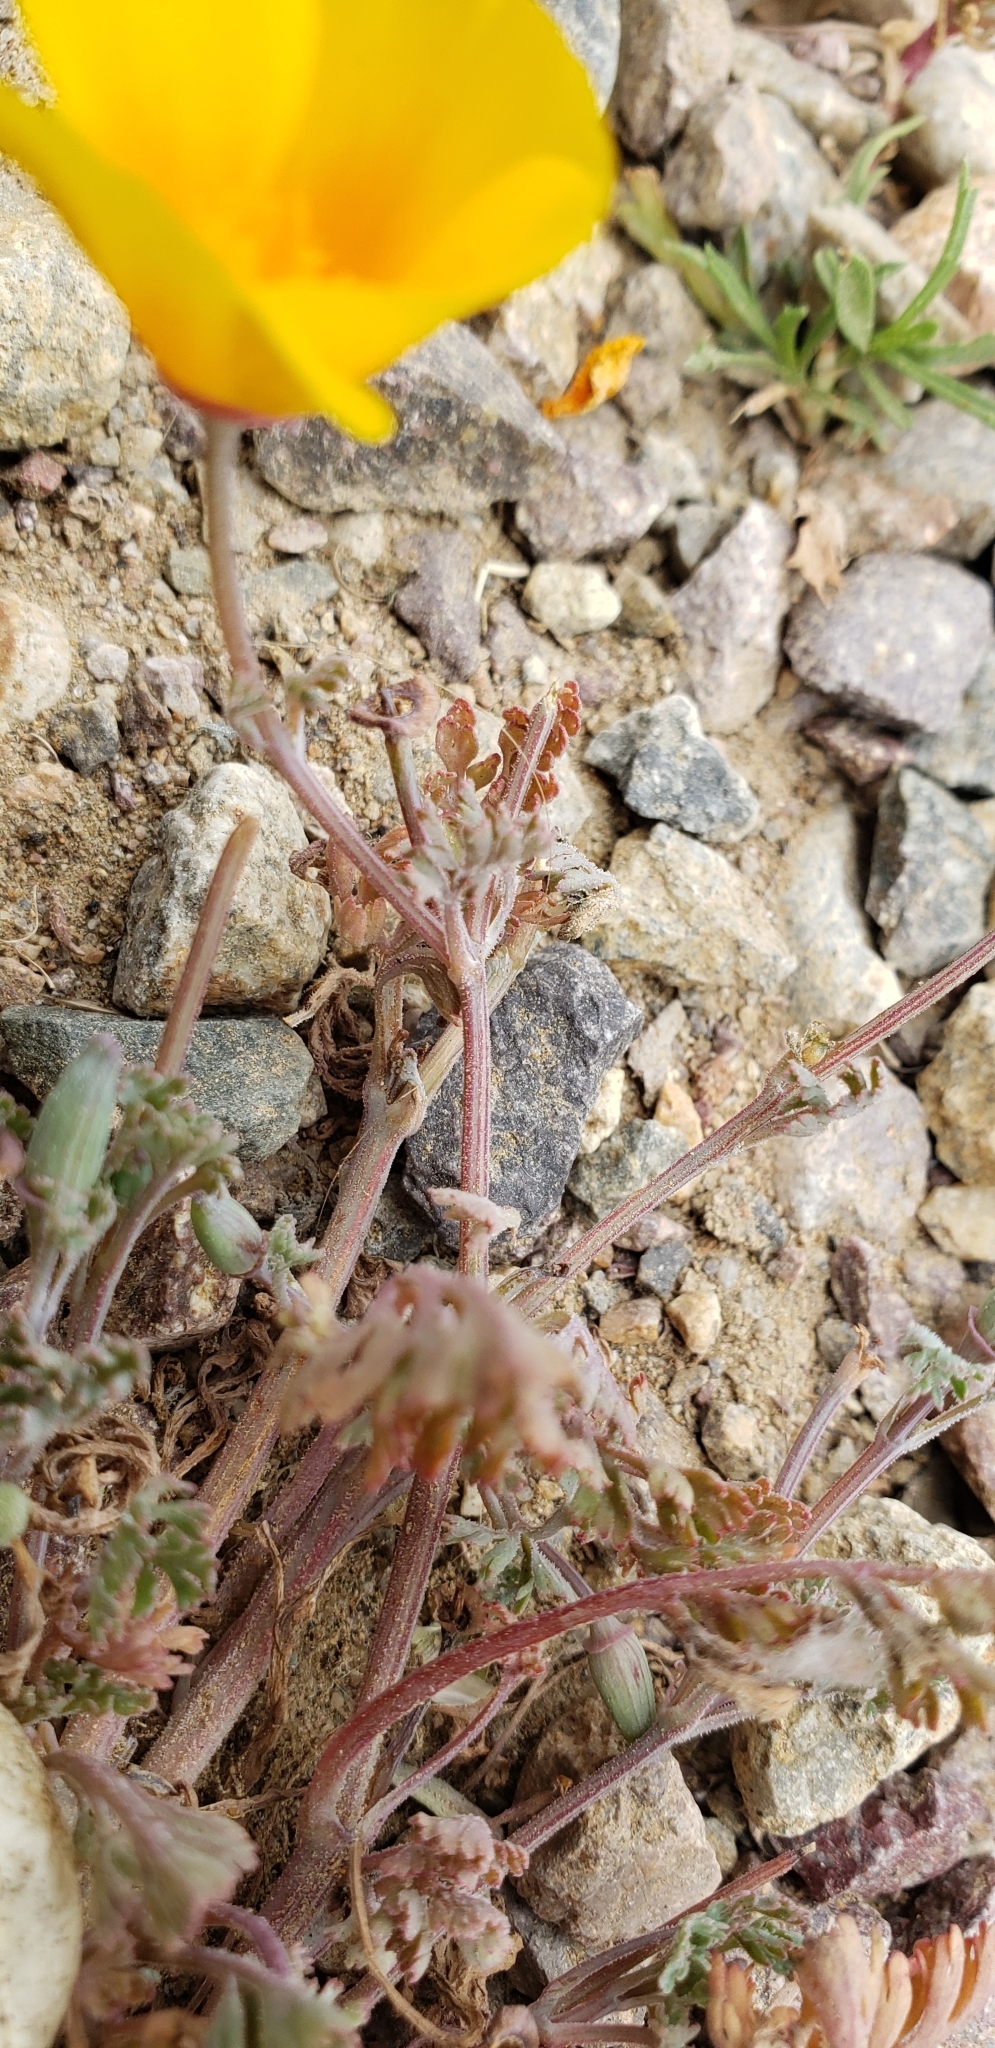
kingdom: Plantae
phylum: Tracheophyta
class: Magnoliopsida
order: Ranunculales
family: Papaveraceae
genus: Eschscholzia
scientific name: Eschscholzia californica
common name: California poppy
